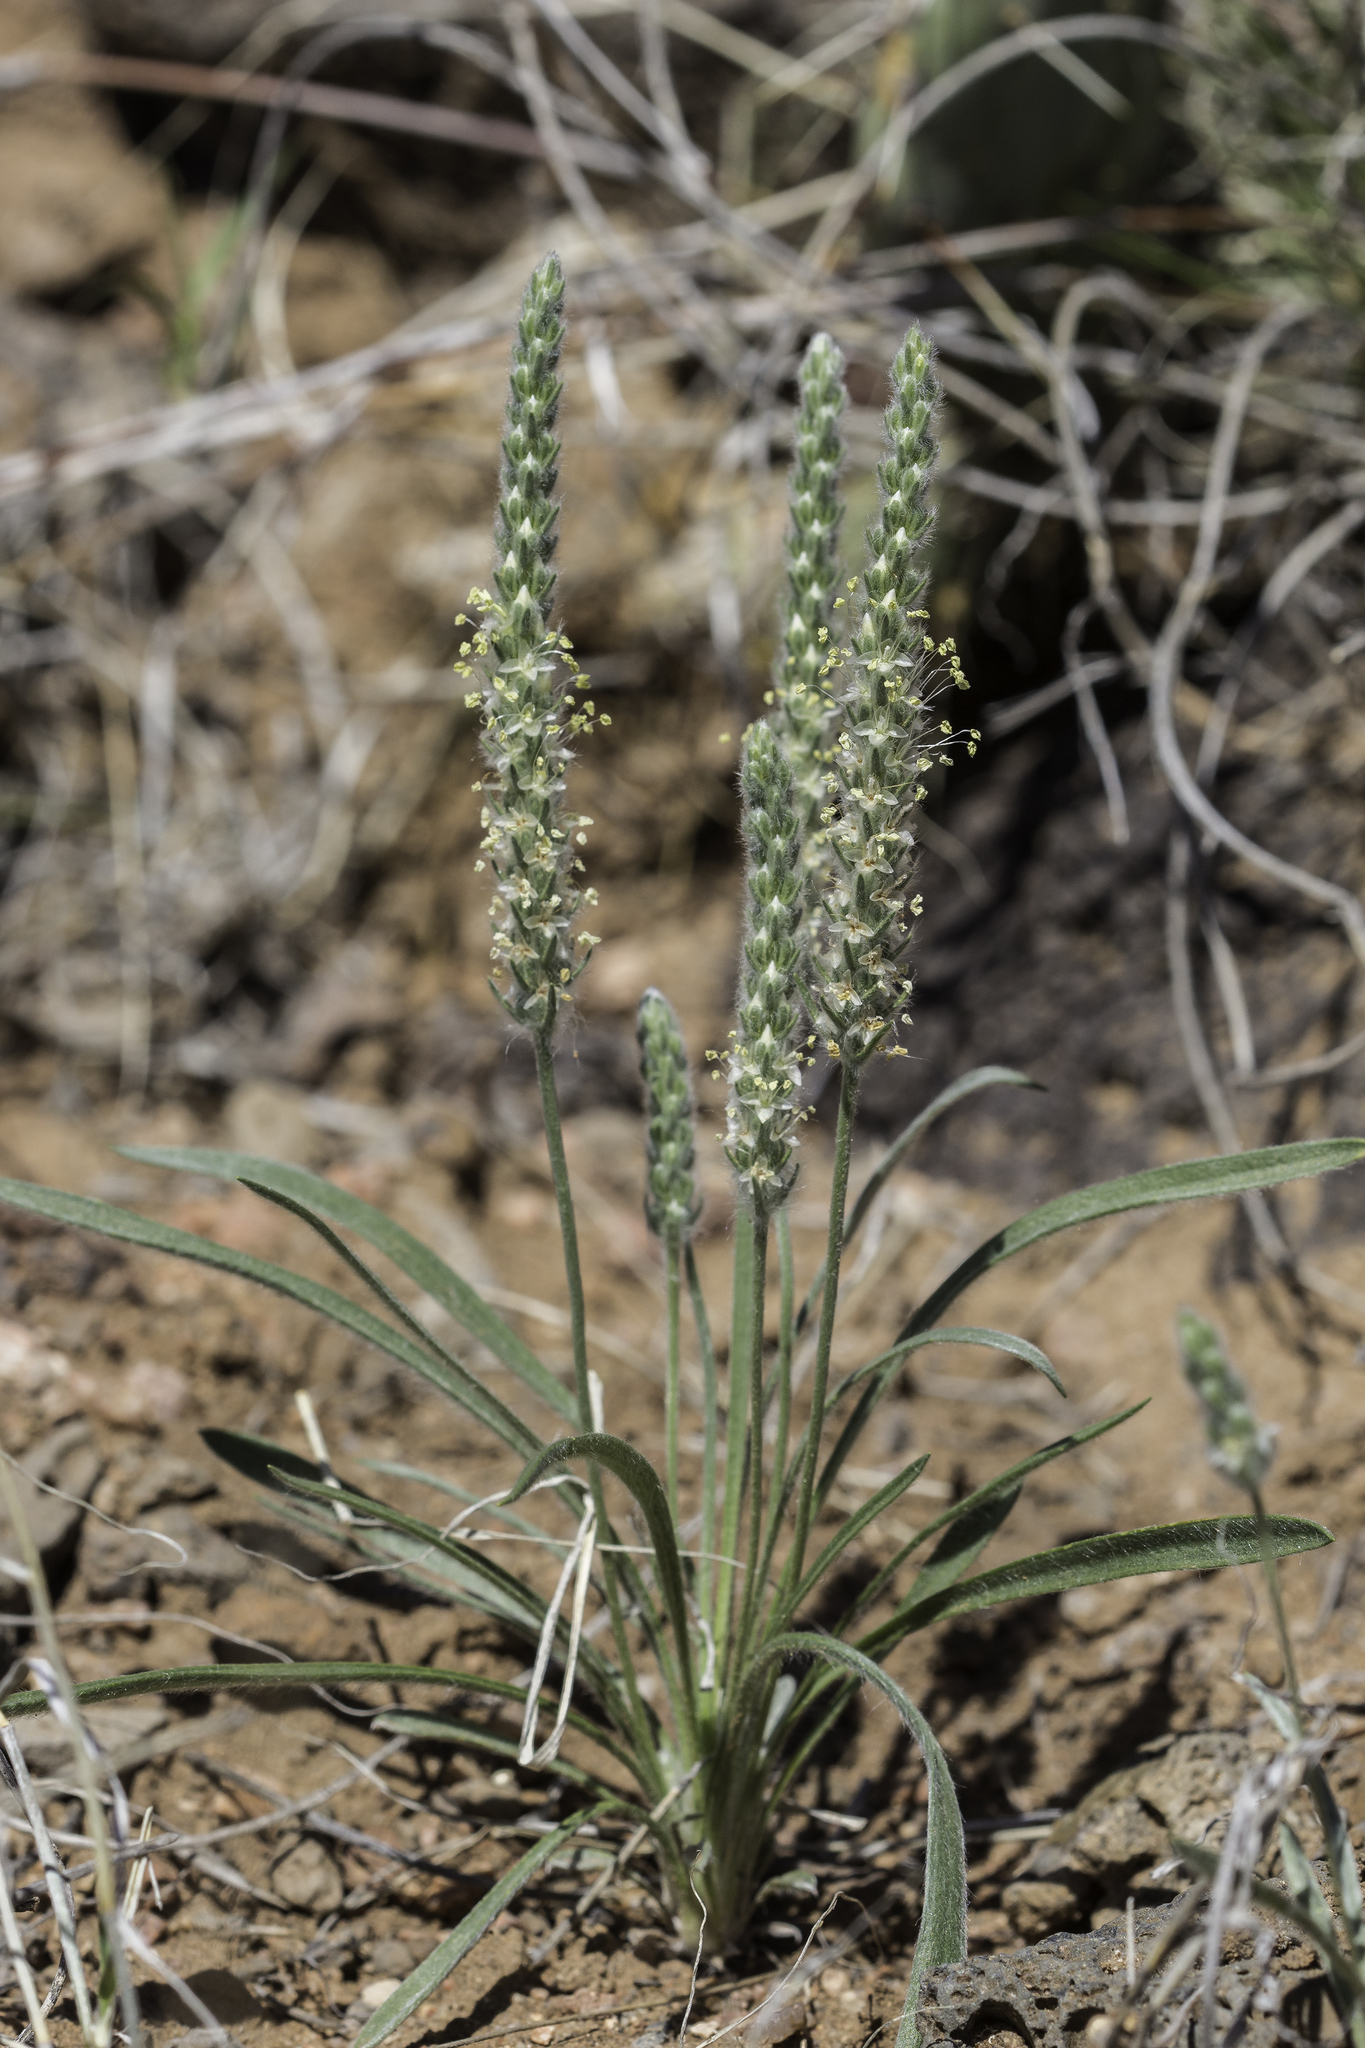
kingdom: Plantae
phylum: Tracheophyta
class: Magnoliopsida
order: Lamiales
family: Plantaginaceae
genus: Plantago
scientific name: Plantago patagonica
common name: Patagonia indian-wheat
